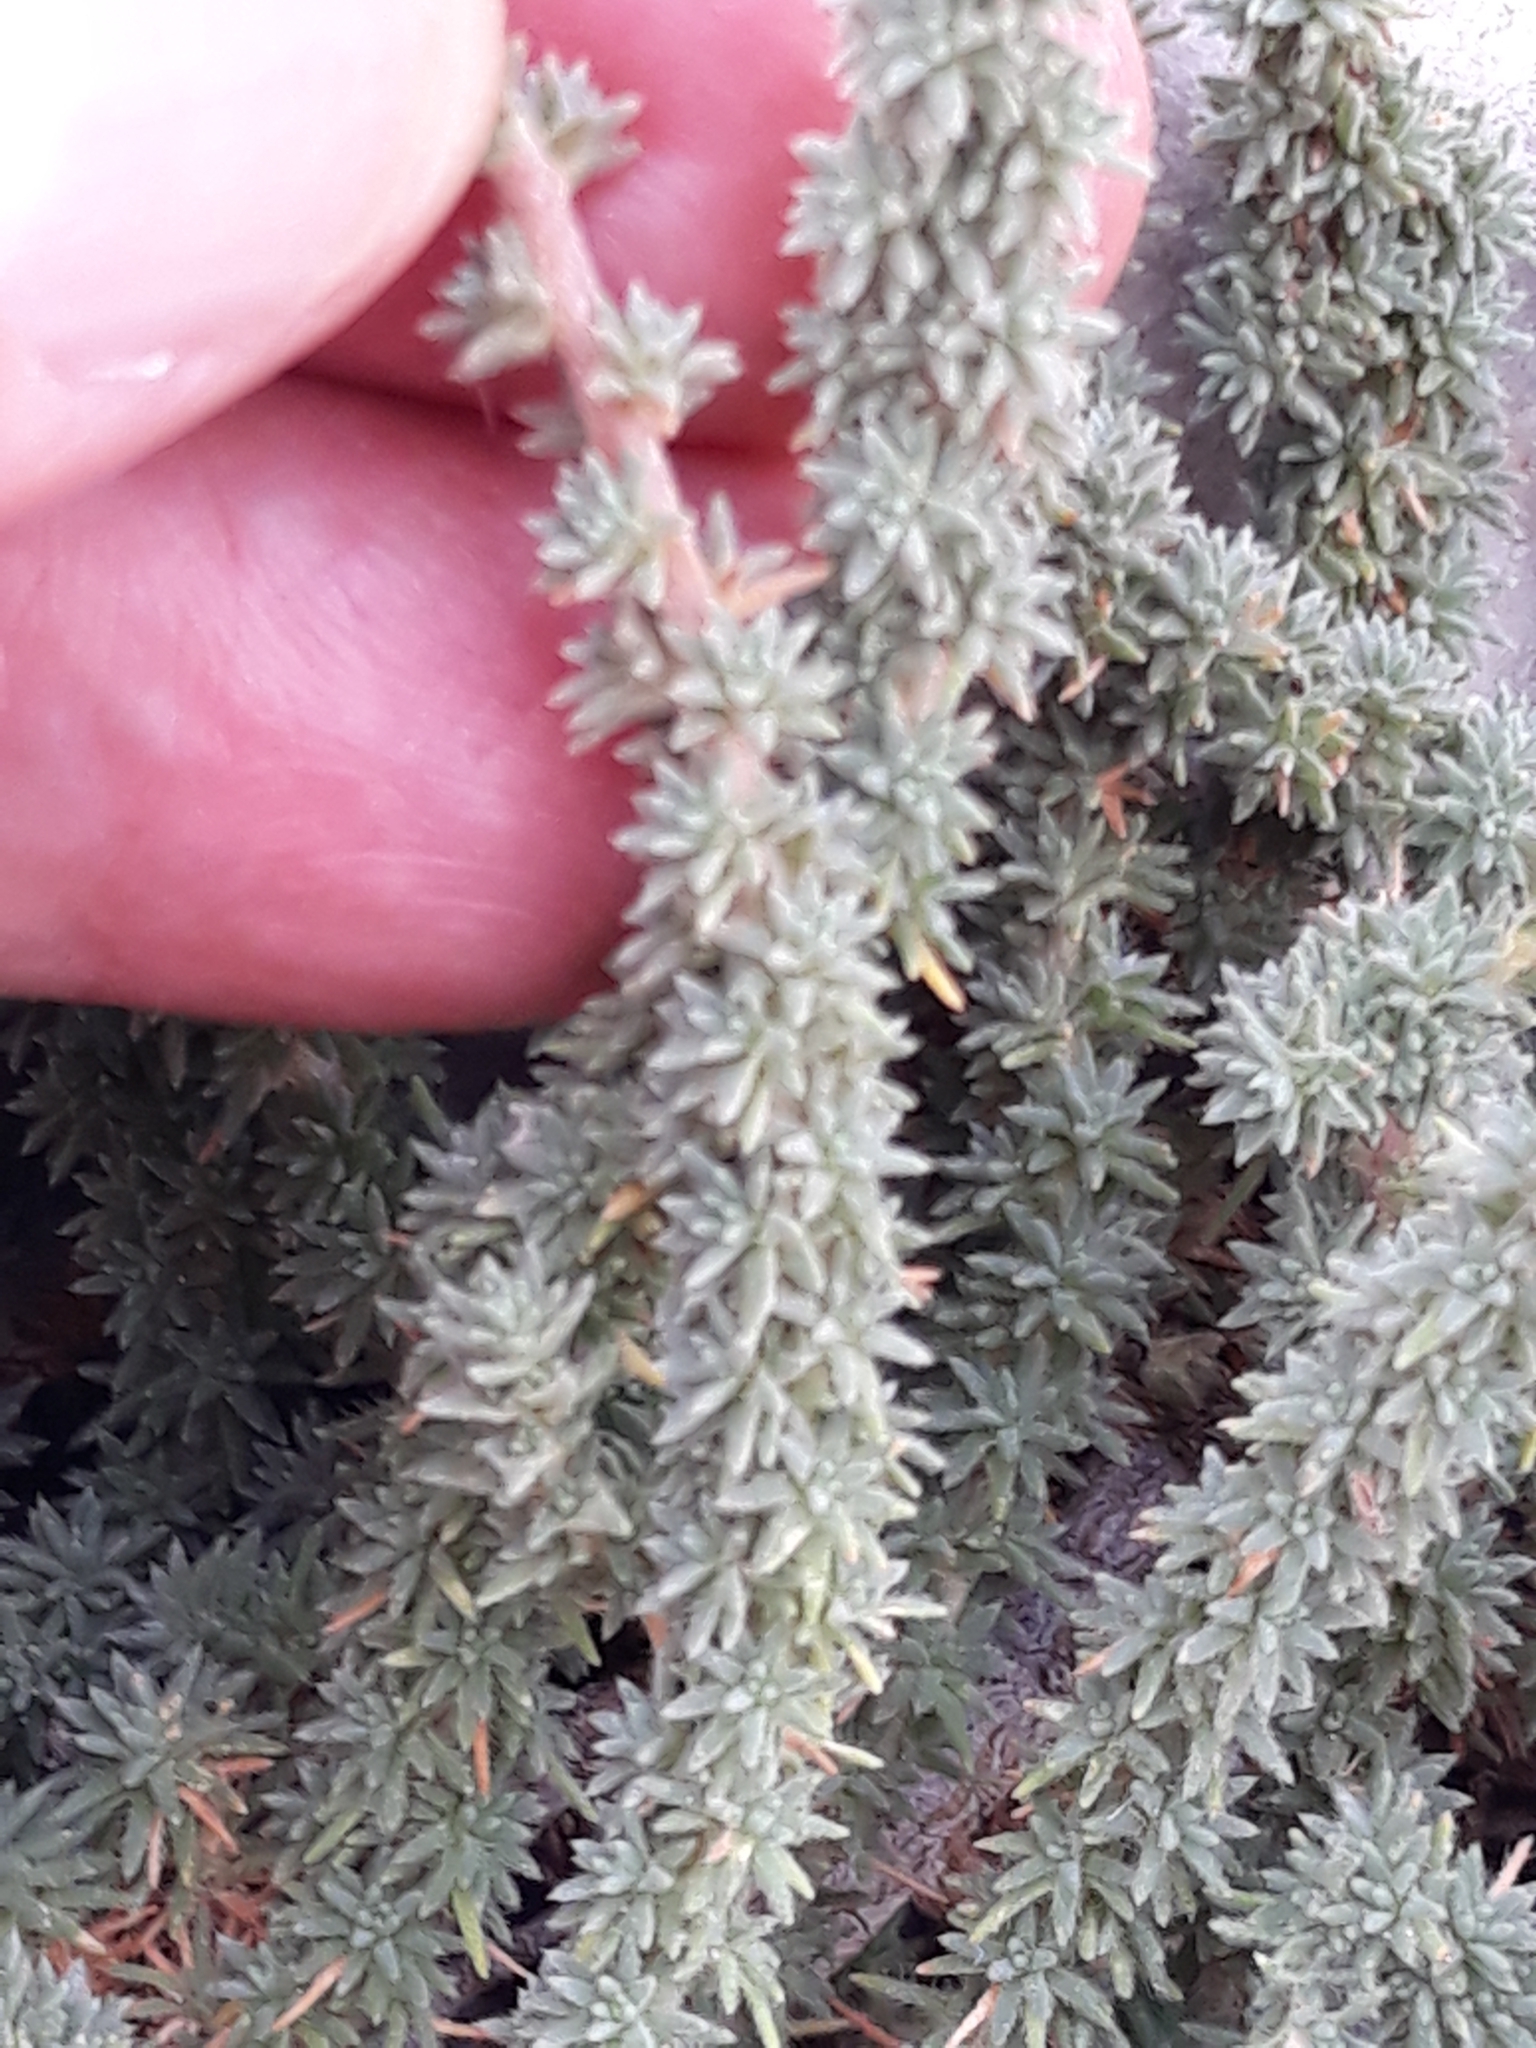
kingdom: Plantae
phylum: Tracheophyta
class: Magnoliopsida
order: Caryophyllales
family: Amaranthaceae
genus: Camphorosma
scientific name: Camphorosma monspeliaca
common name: Camphorfume
